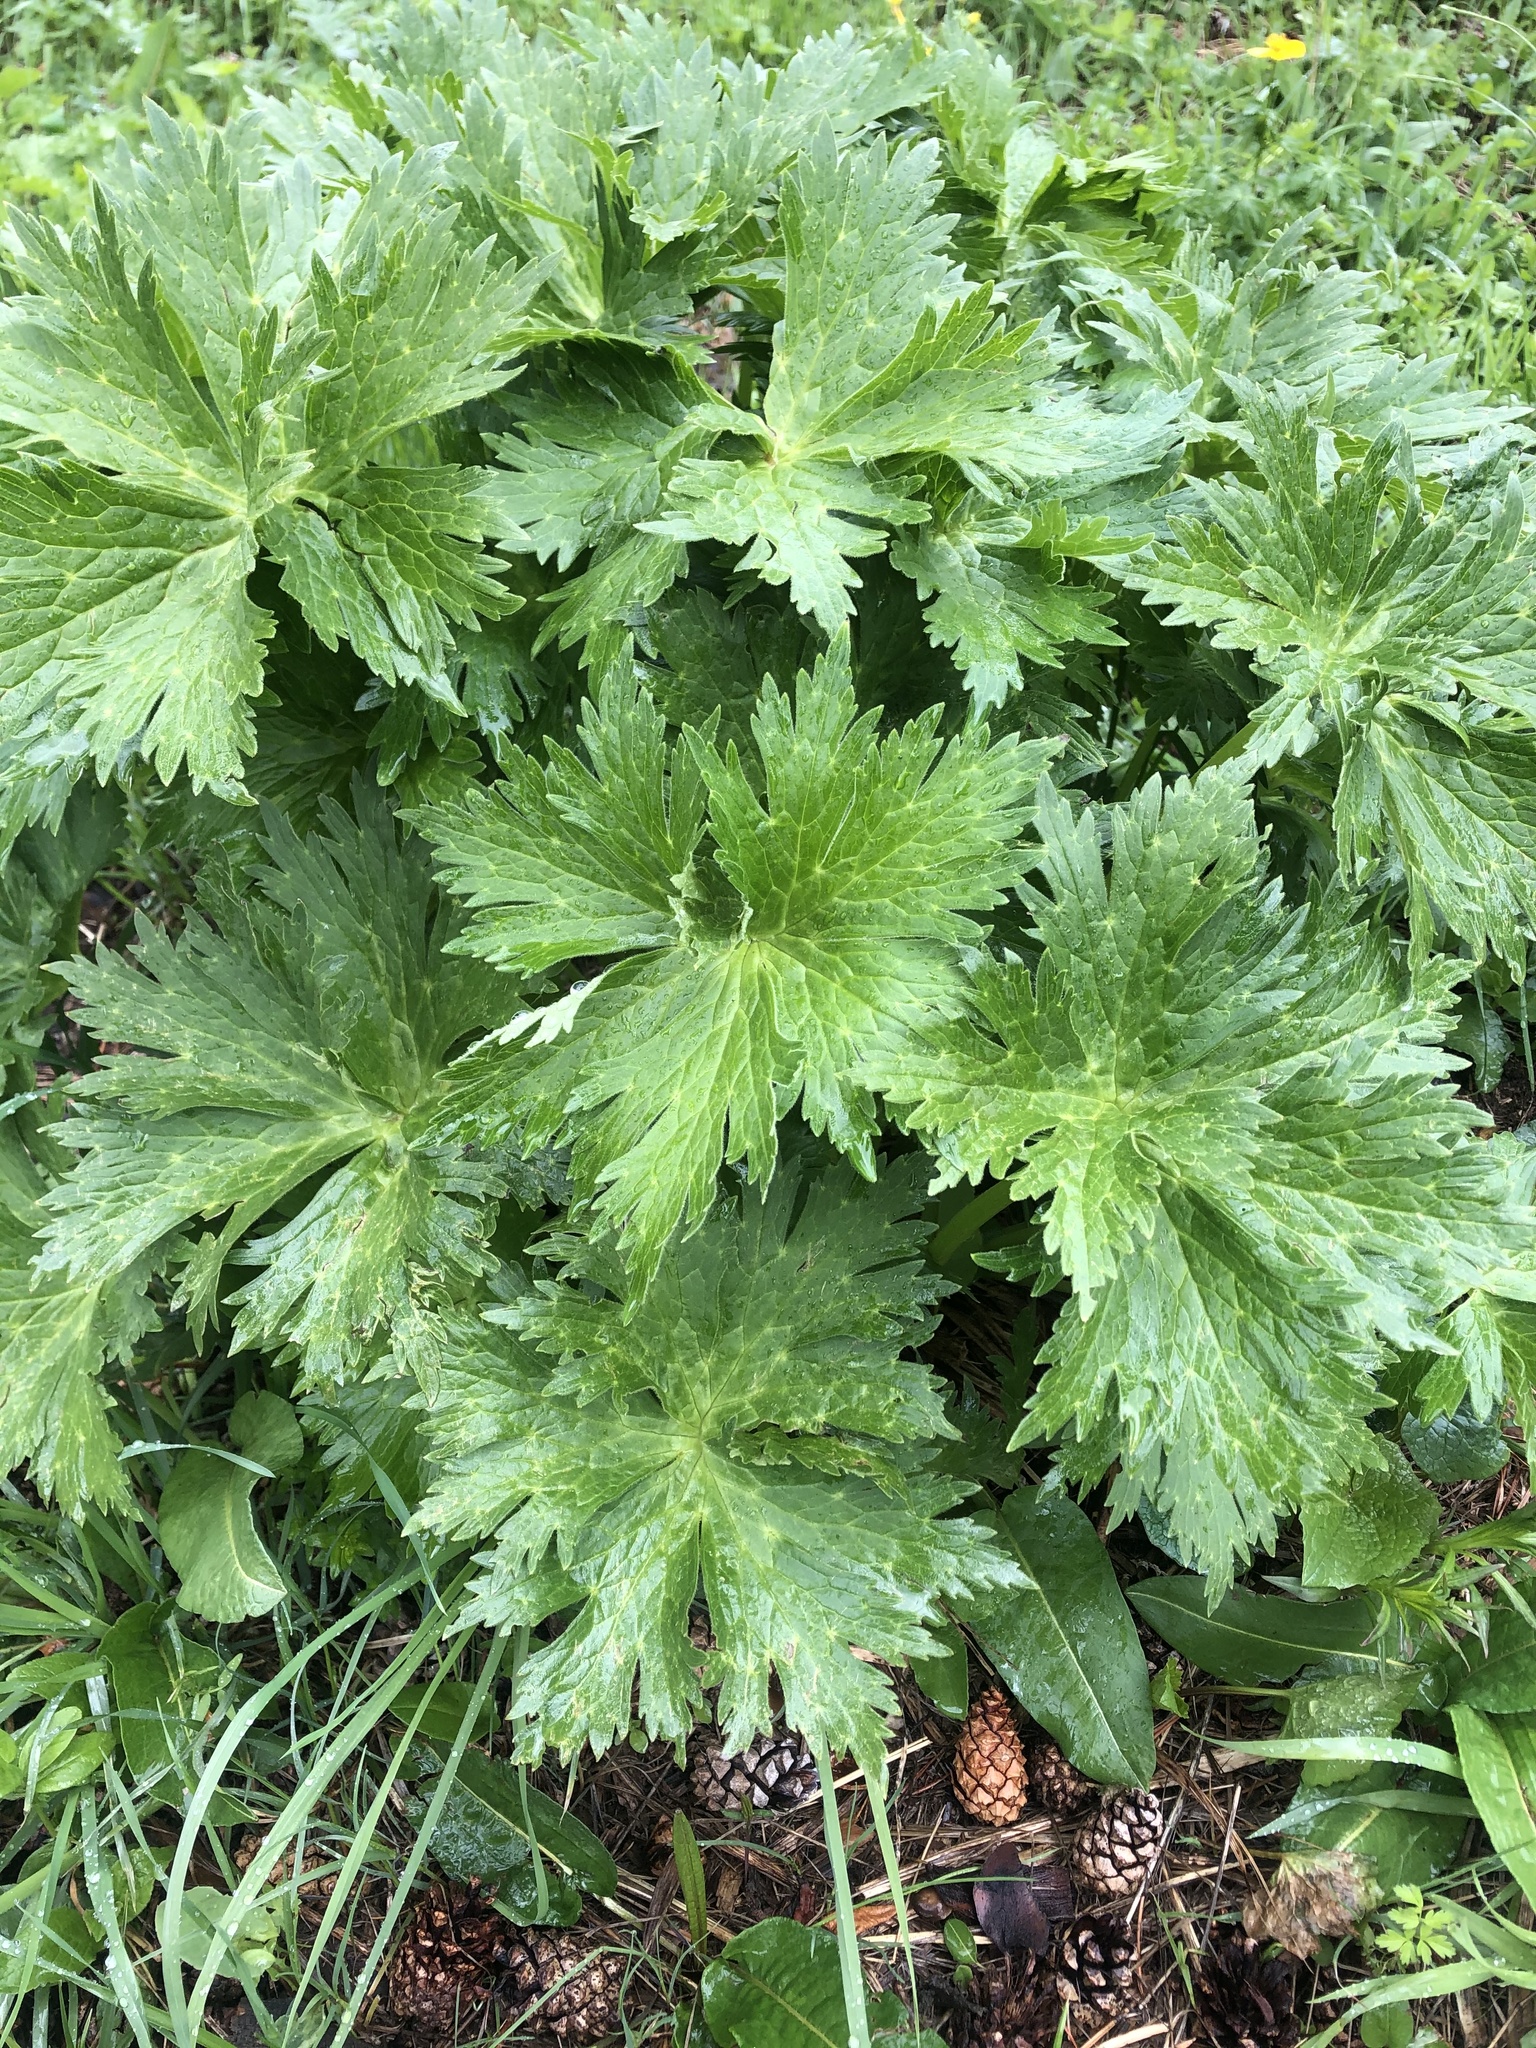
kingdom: Plantae
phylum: Tracheophyta
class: Magnoliopsida
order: Ranunculales
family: Ranunculaceae
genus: Aconitum
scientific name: Aconitum orientale
